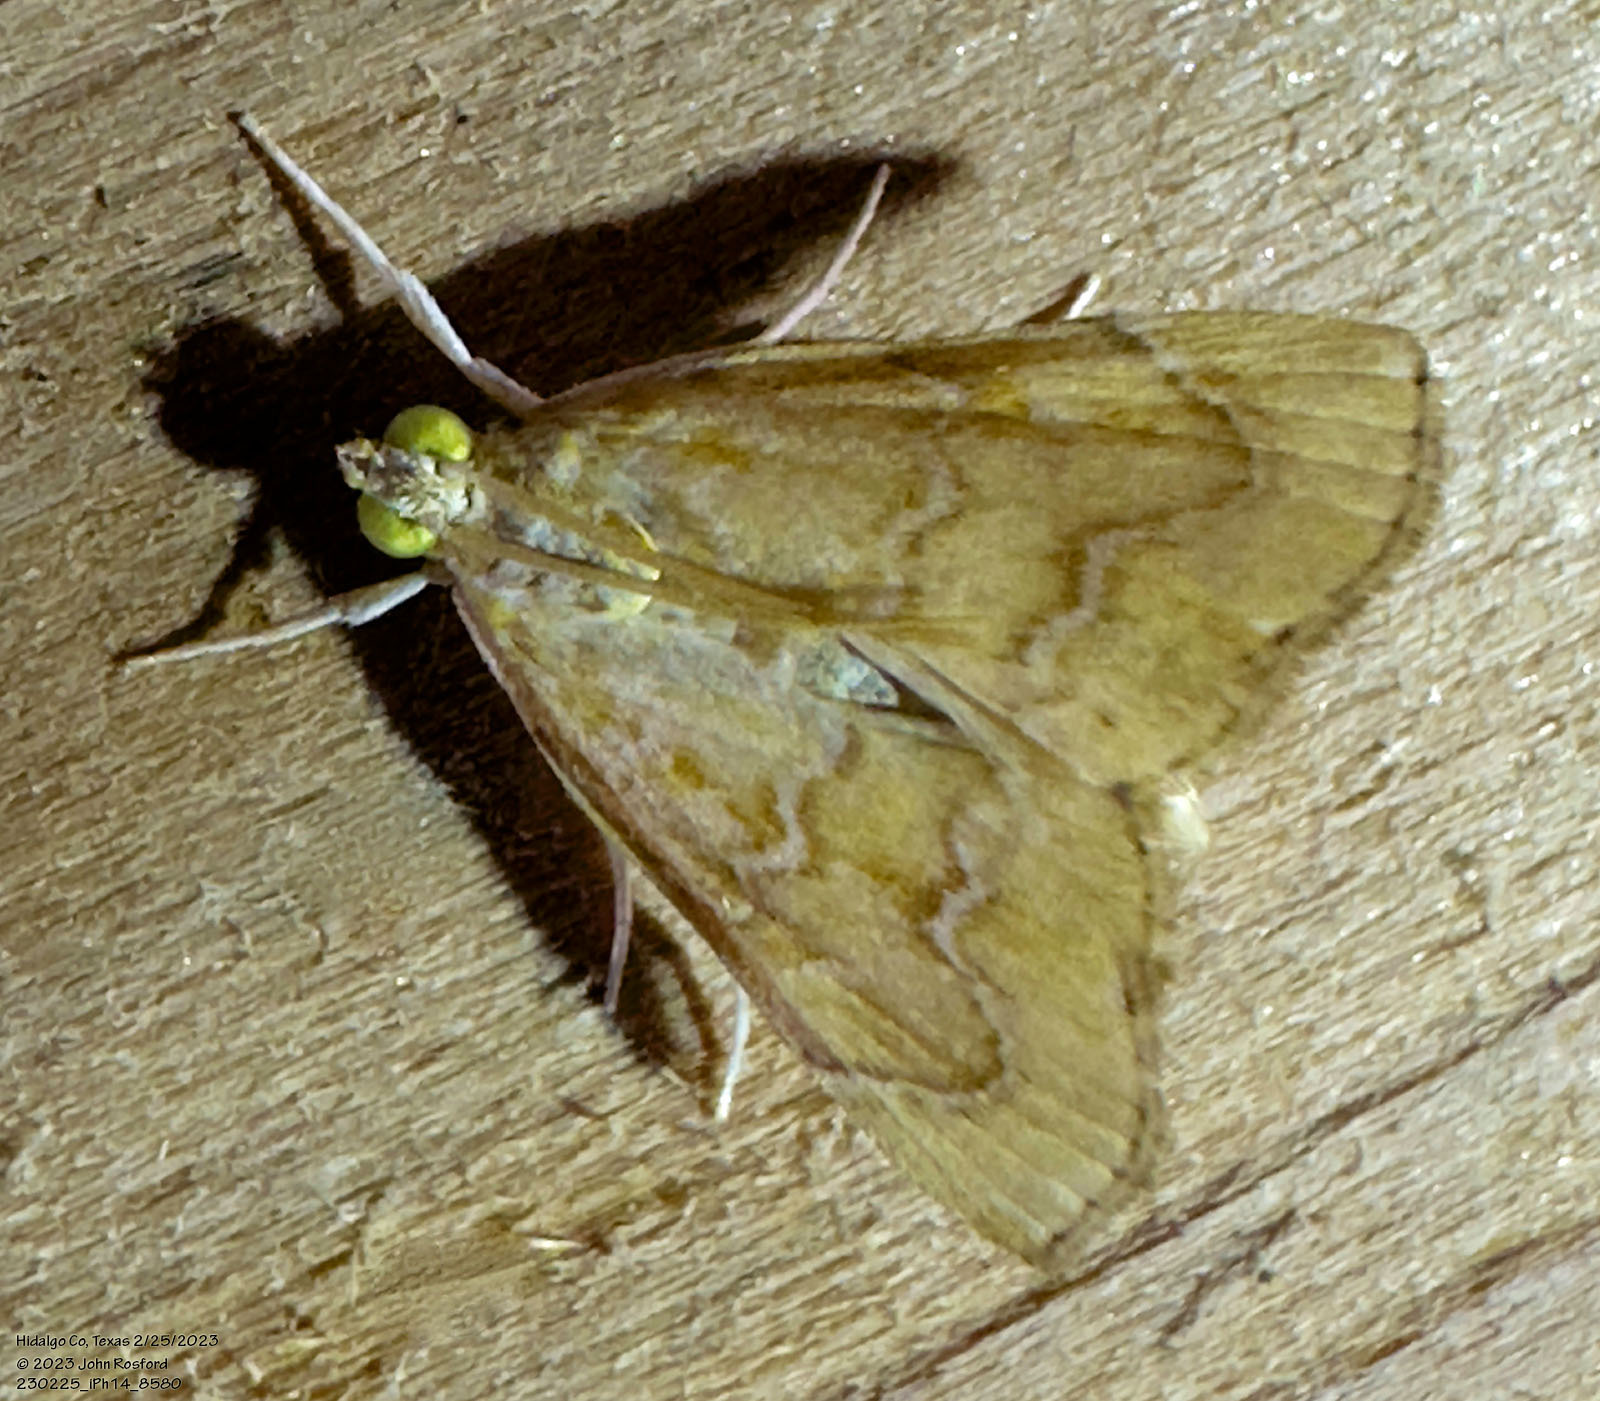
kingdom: Animalia
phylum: Arthropoda
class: Insecta
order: Lepidoptera
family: Crambidae
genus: Glaphyria
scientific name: Glaphyria sesquistrialis
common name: White-roped glaphyria
